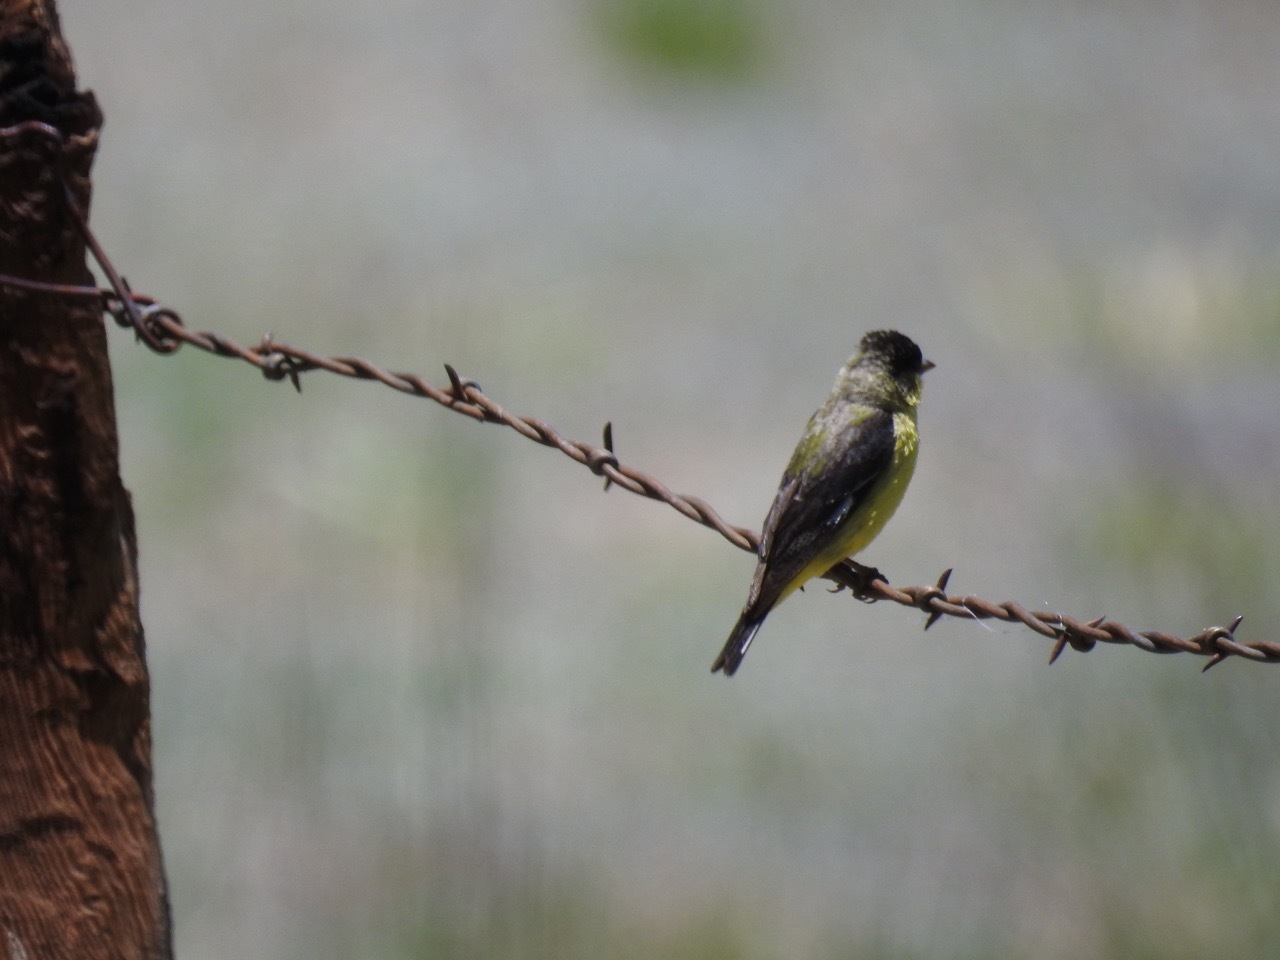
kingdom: Animalia
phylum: Chordata
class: Aves
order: Passeriformes
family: Fringillidae
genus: Spinus
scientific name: Spinus psaltria
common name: Lesser goldfinch
